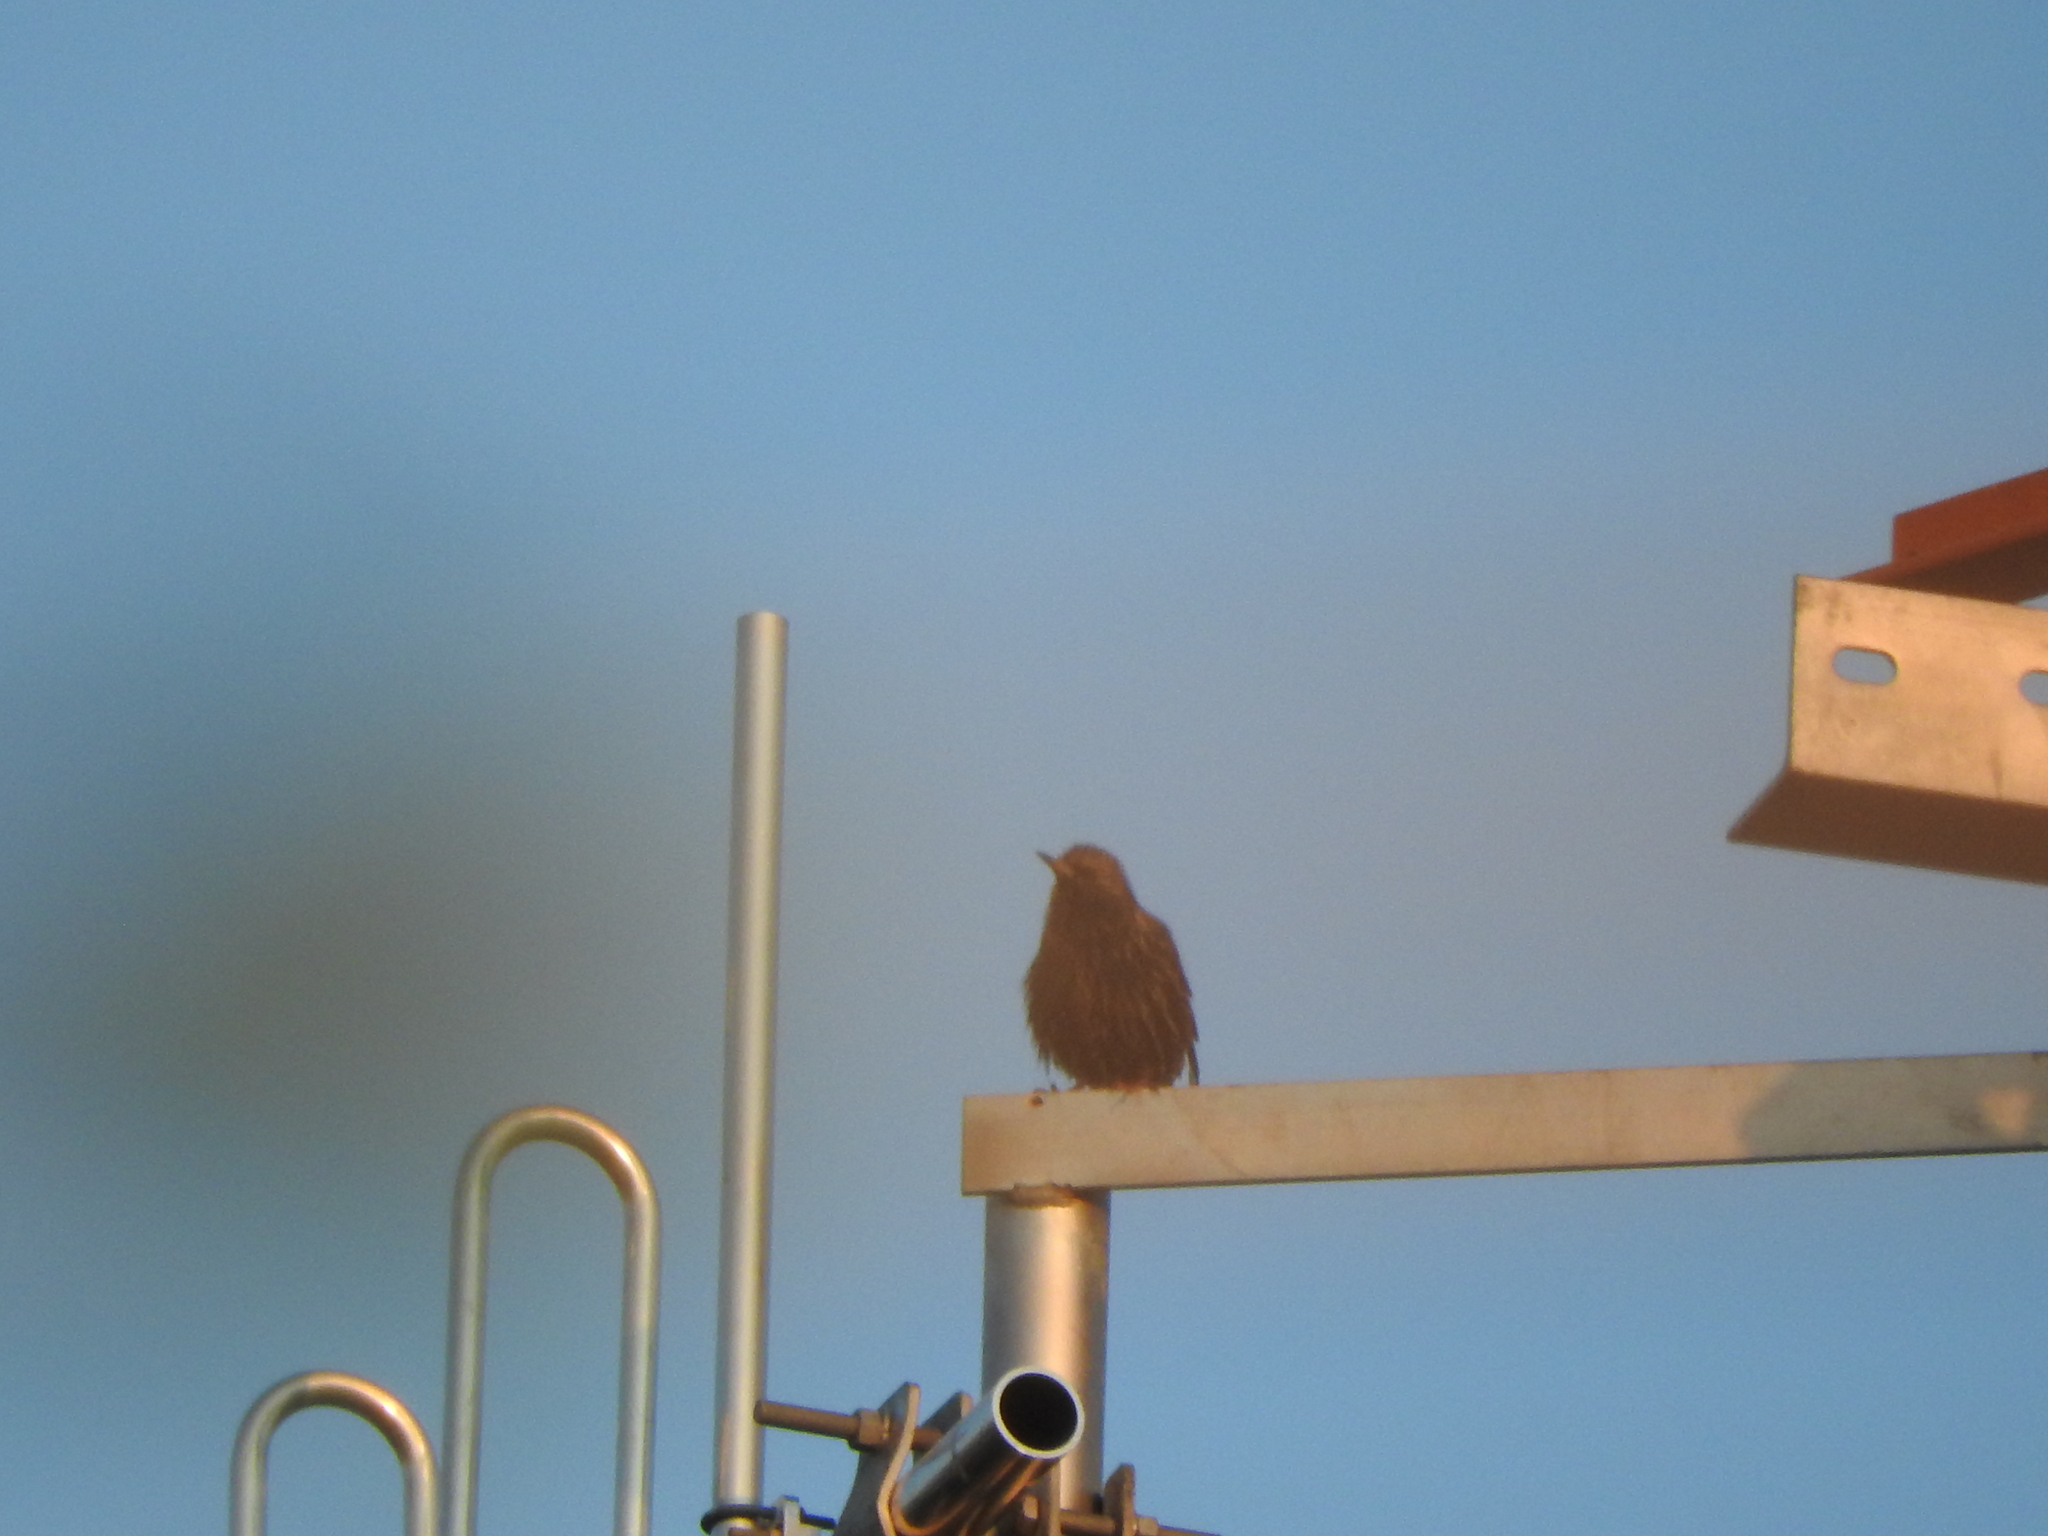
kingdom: Animalia
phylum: Chordata
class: Aves
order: Passeriformes
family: Sturnidae
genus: Sturnus
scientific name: Sturnus vulgaris
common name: Common starling
